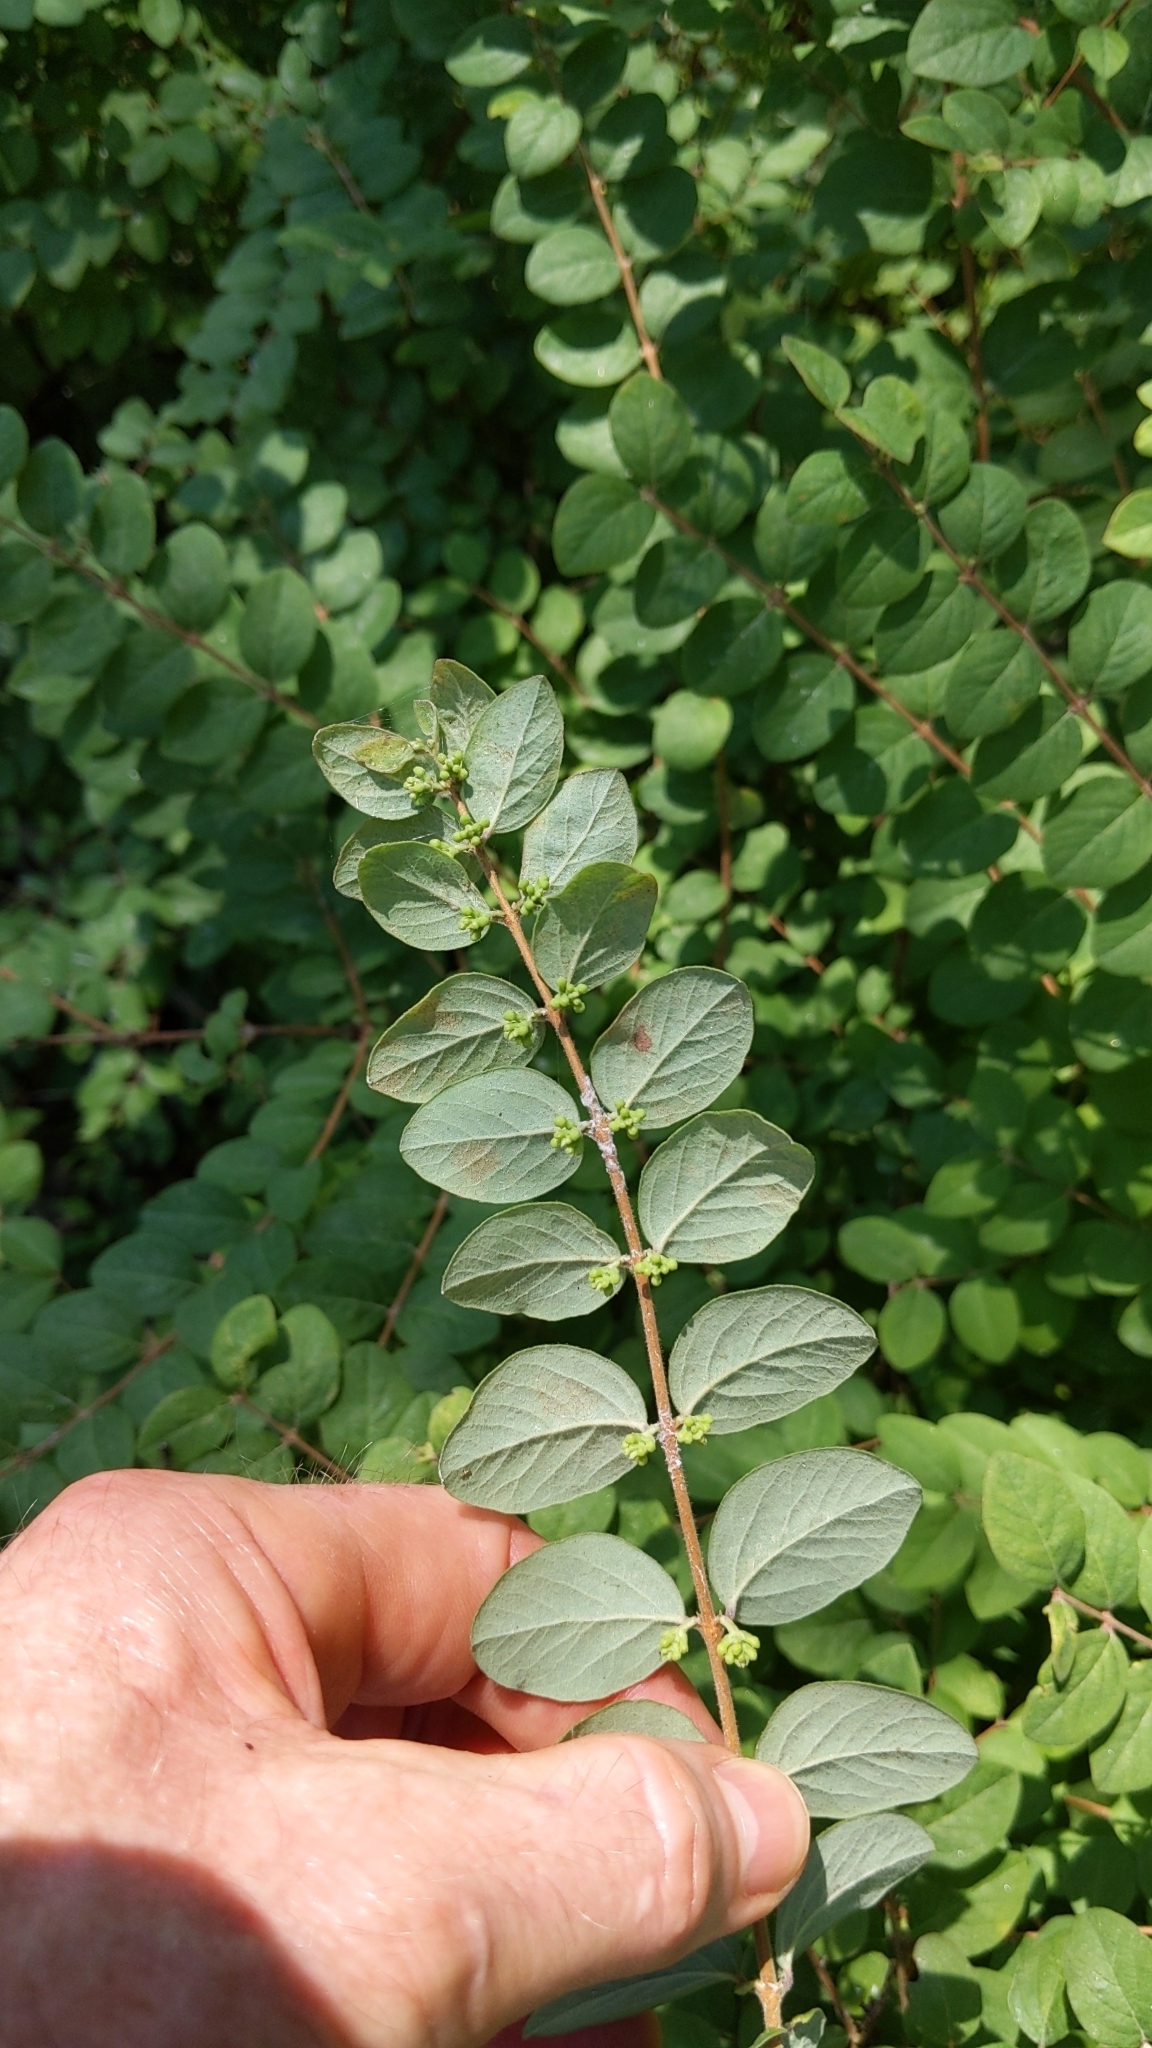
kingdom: Plantae
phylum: Tracheophyta
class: Magnoliopsida
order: Dipsacales
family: Caprifoliaceae
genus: Symphoricarpos
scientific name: Symphoricarpos orbiculatus
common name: Coralberry
